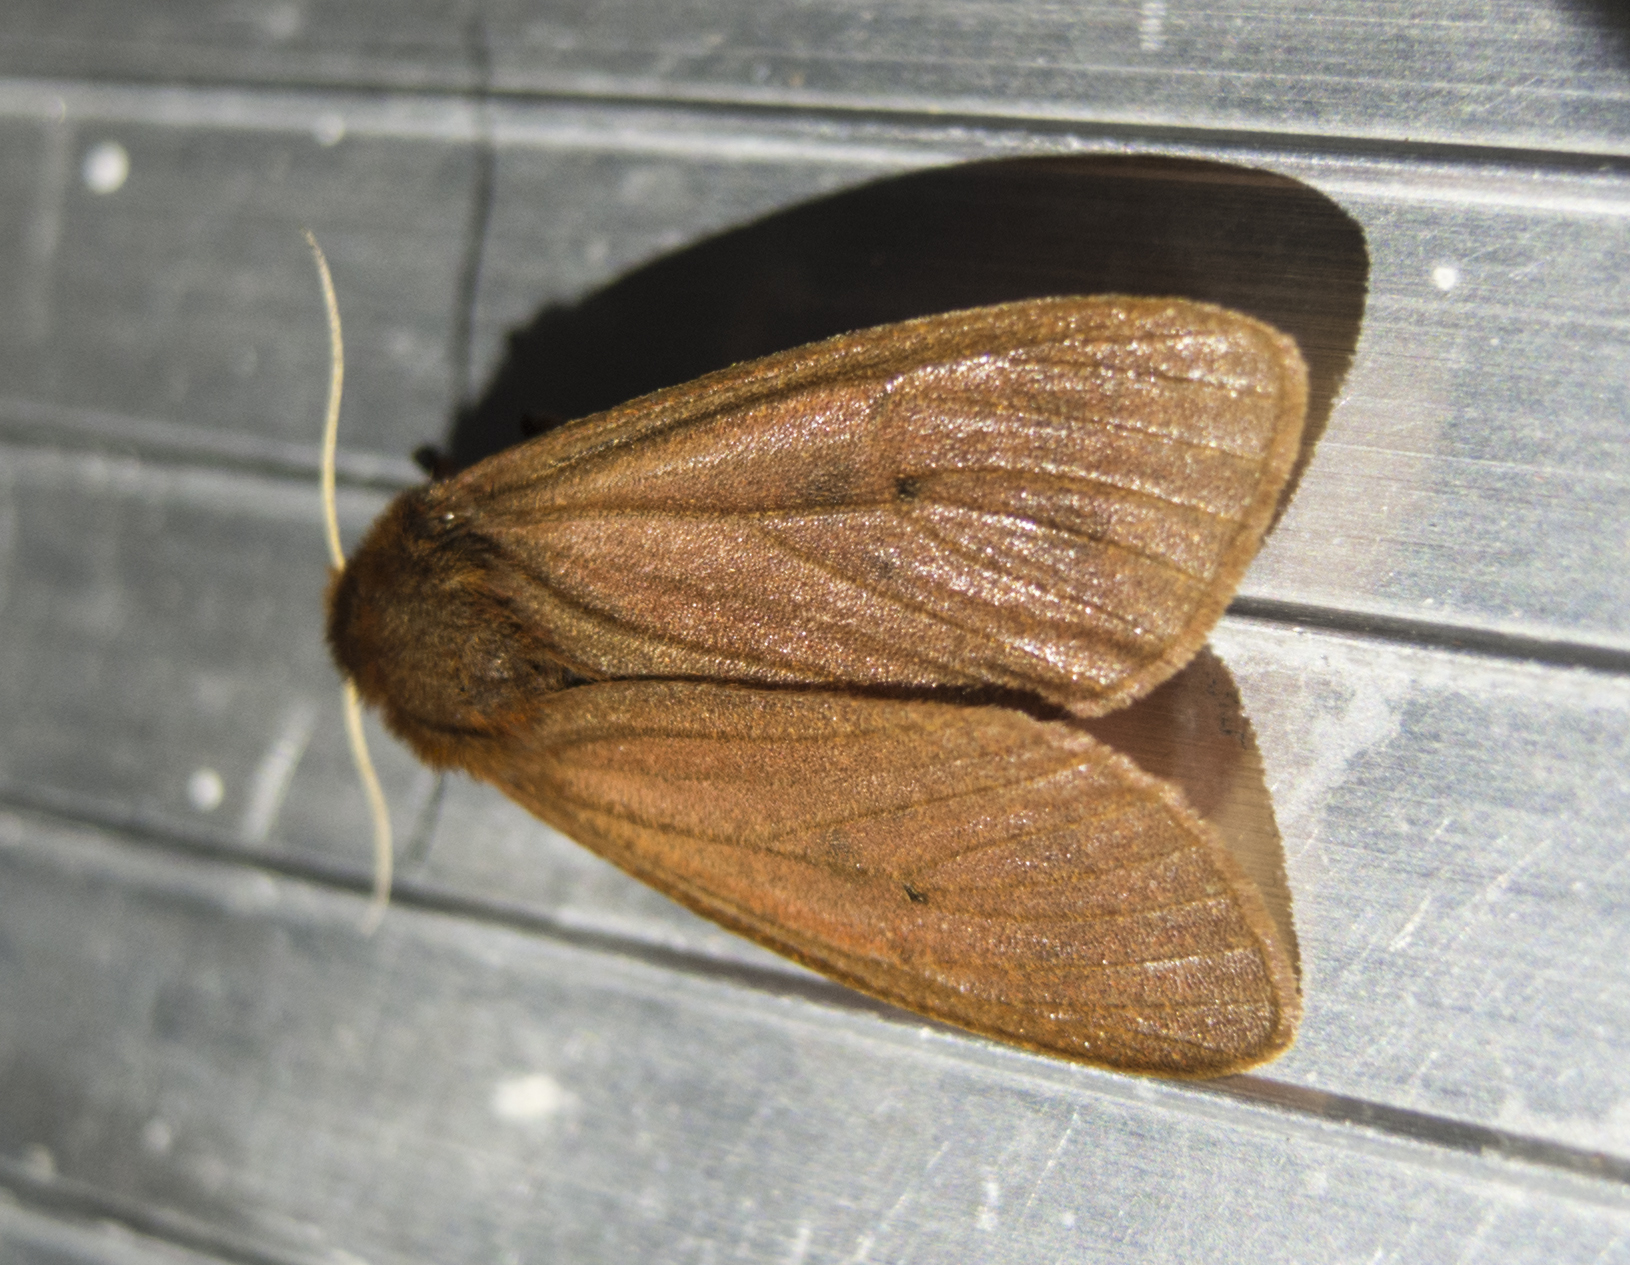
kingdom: Animalia
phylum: Arthropoda
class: Insecta
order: Lepidoptera
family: Erebidae
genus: Phragmatobia
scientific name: Phragmatobia fuliginosa
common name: Ruby tiger
